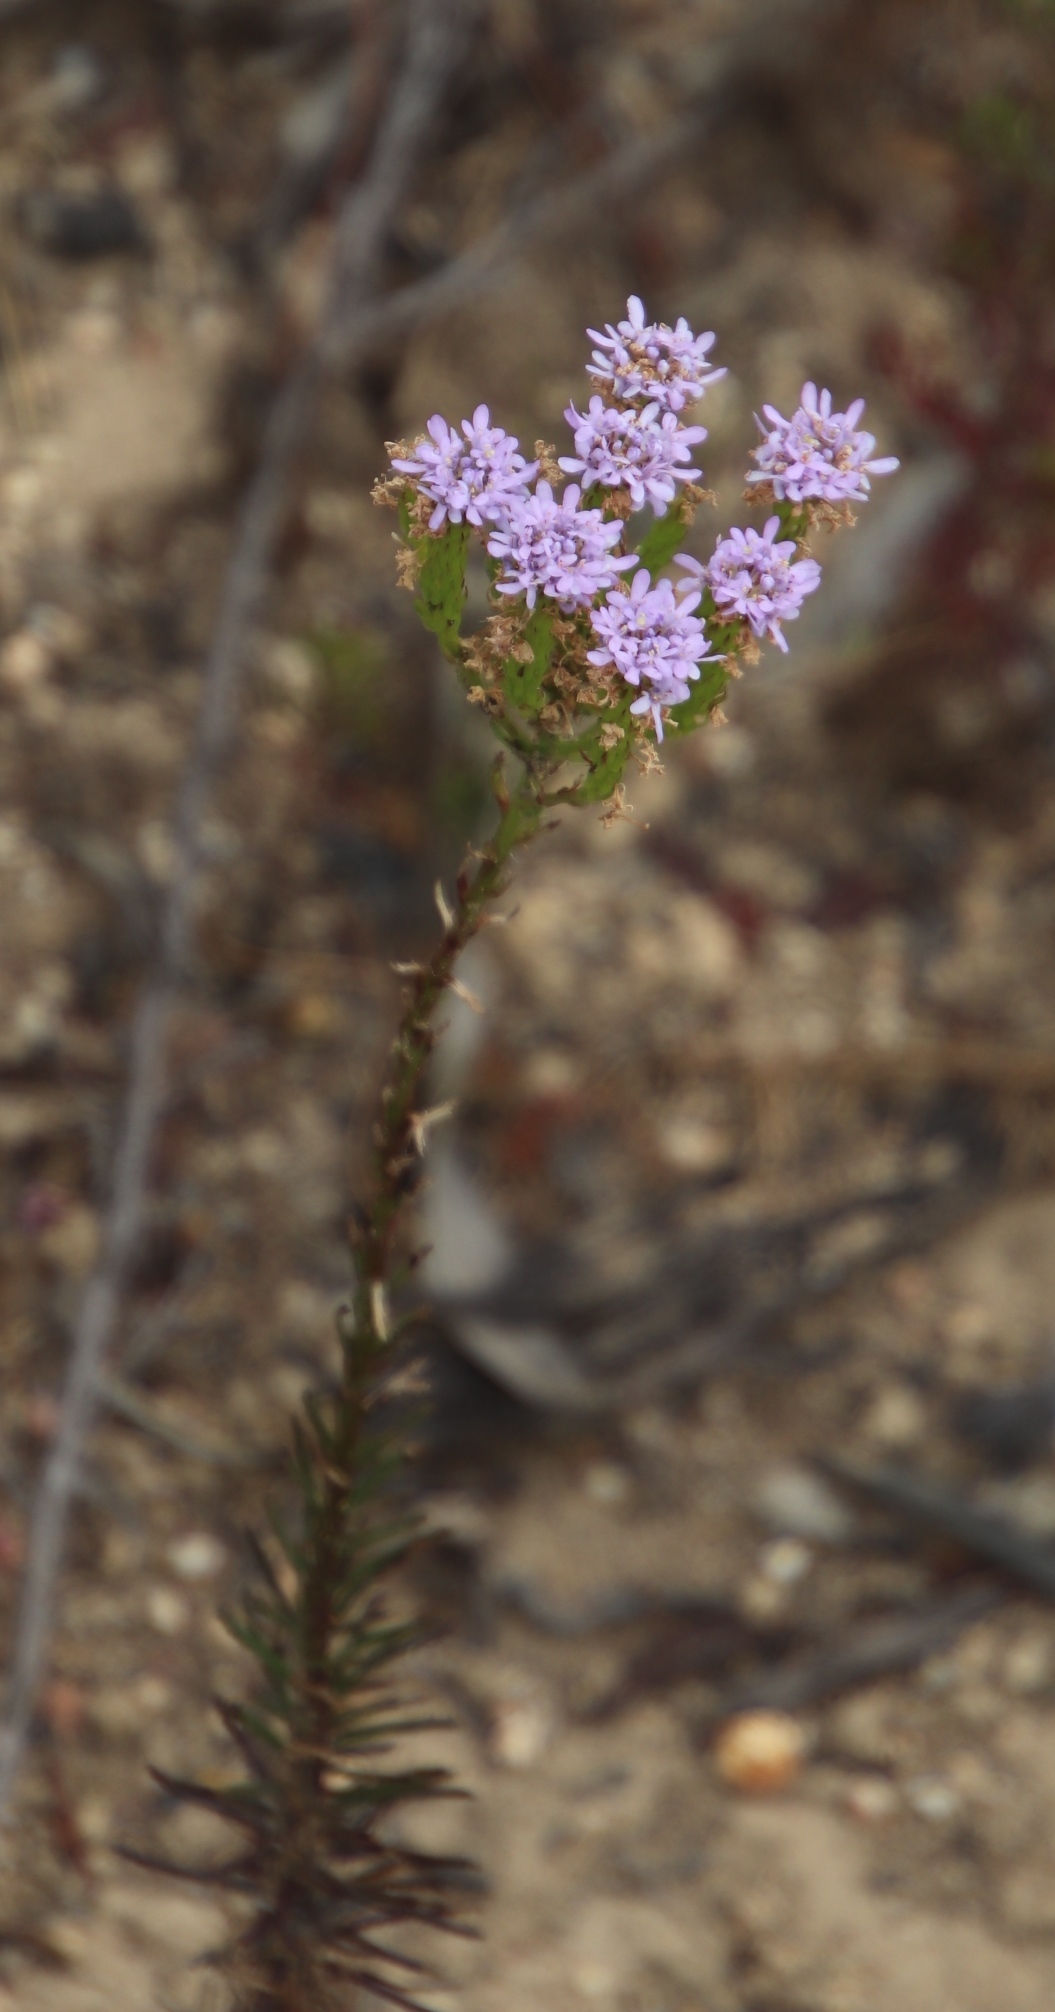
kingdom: Plantae
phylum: Tracheophyta
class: Magnoliopsida
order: Lamiales
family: Scrophulariaceae
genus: Pseudoselago
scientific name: Pseudoselago spuria
